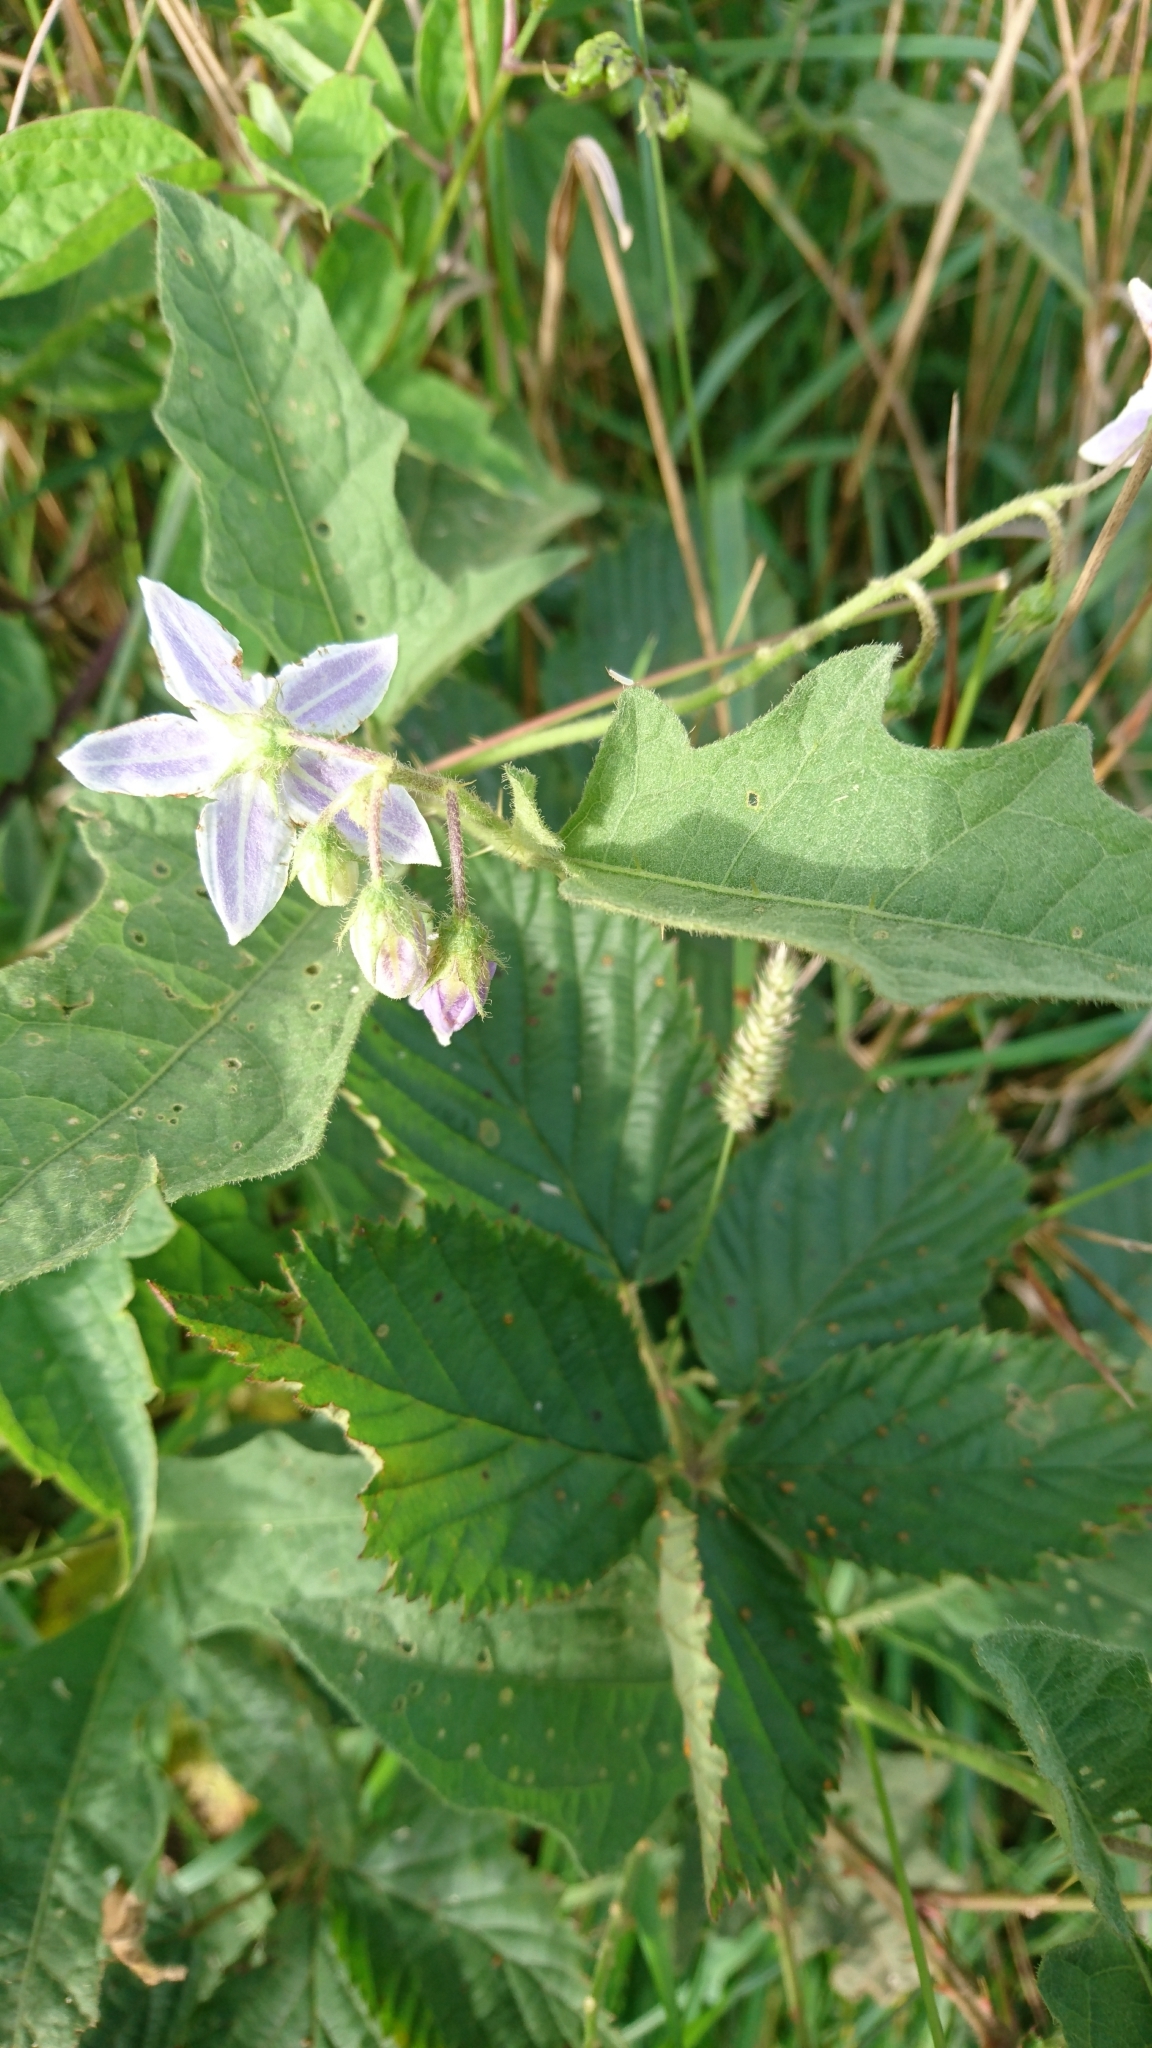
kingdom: Plantae
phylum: Tracheophyta
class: Magnoliopsida
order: Solanales
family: Solanaceae
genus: Solanum
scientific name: Solanum carolinense
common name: Horse-nettle
